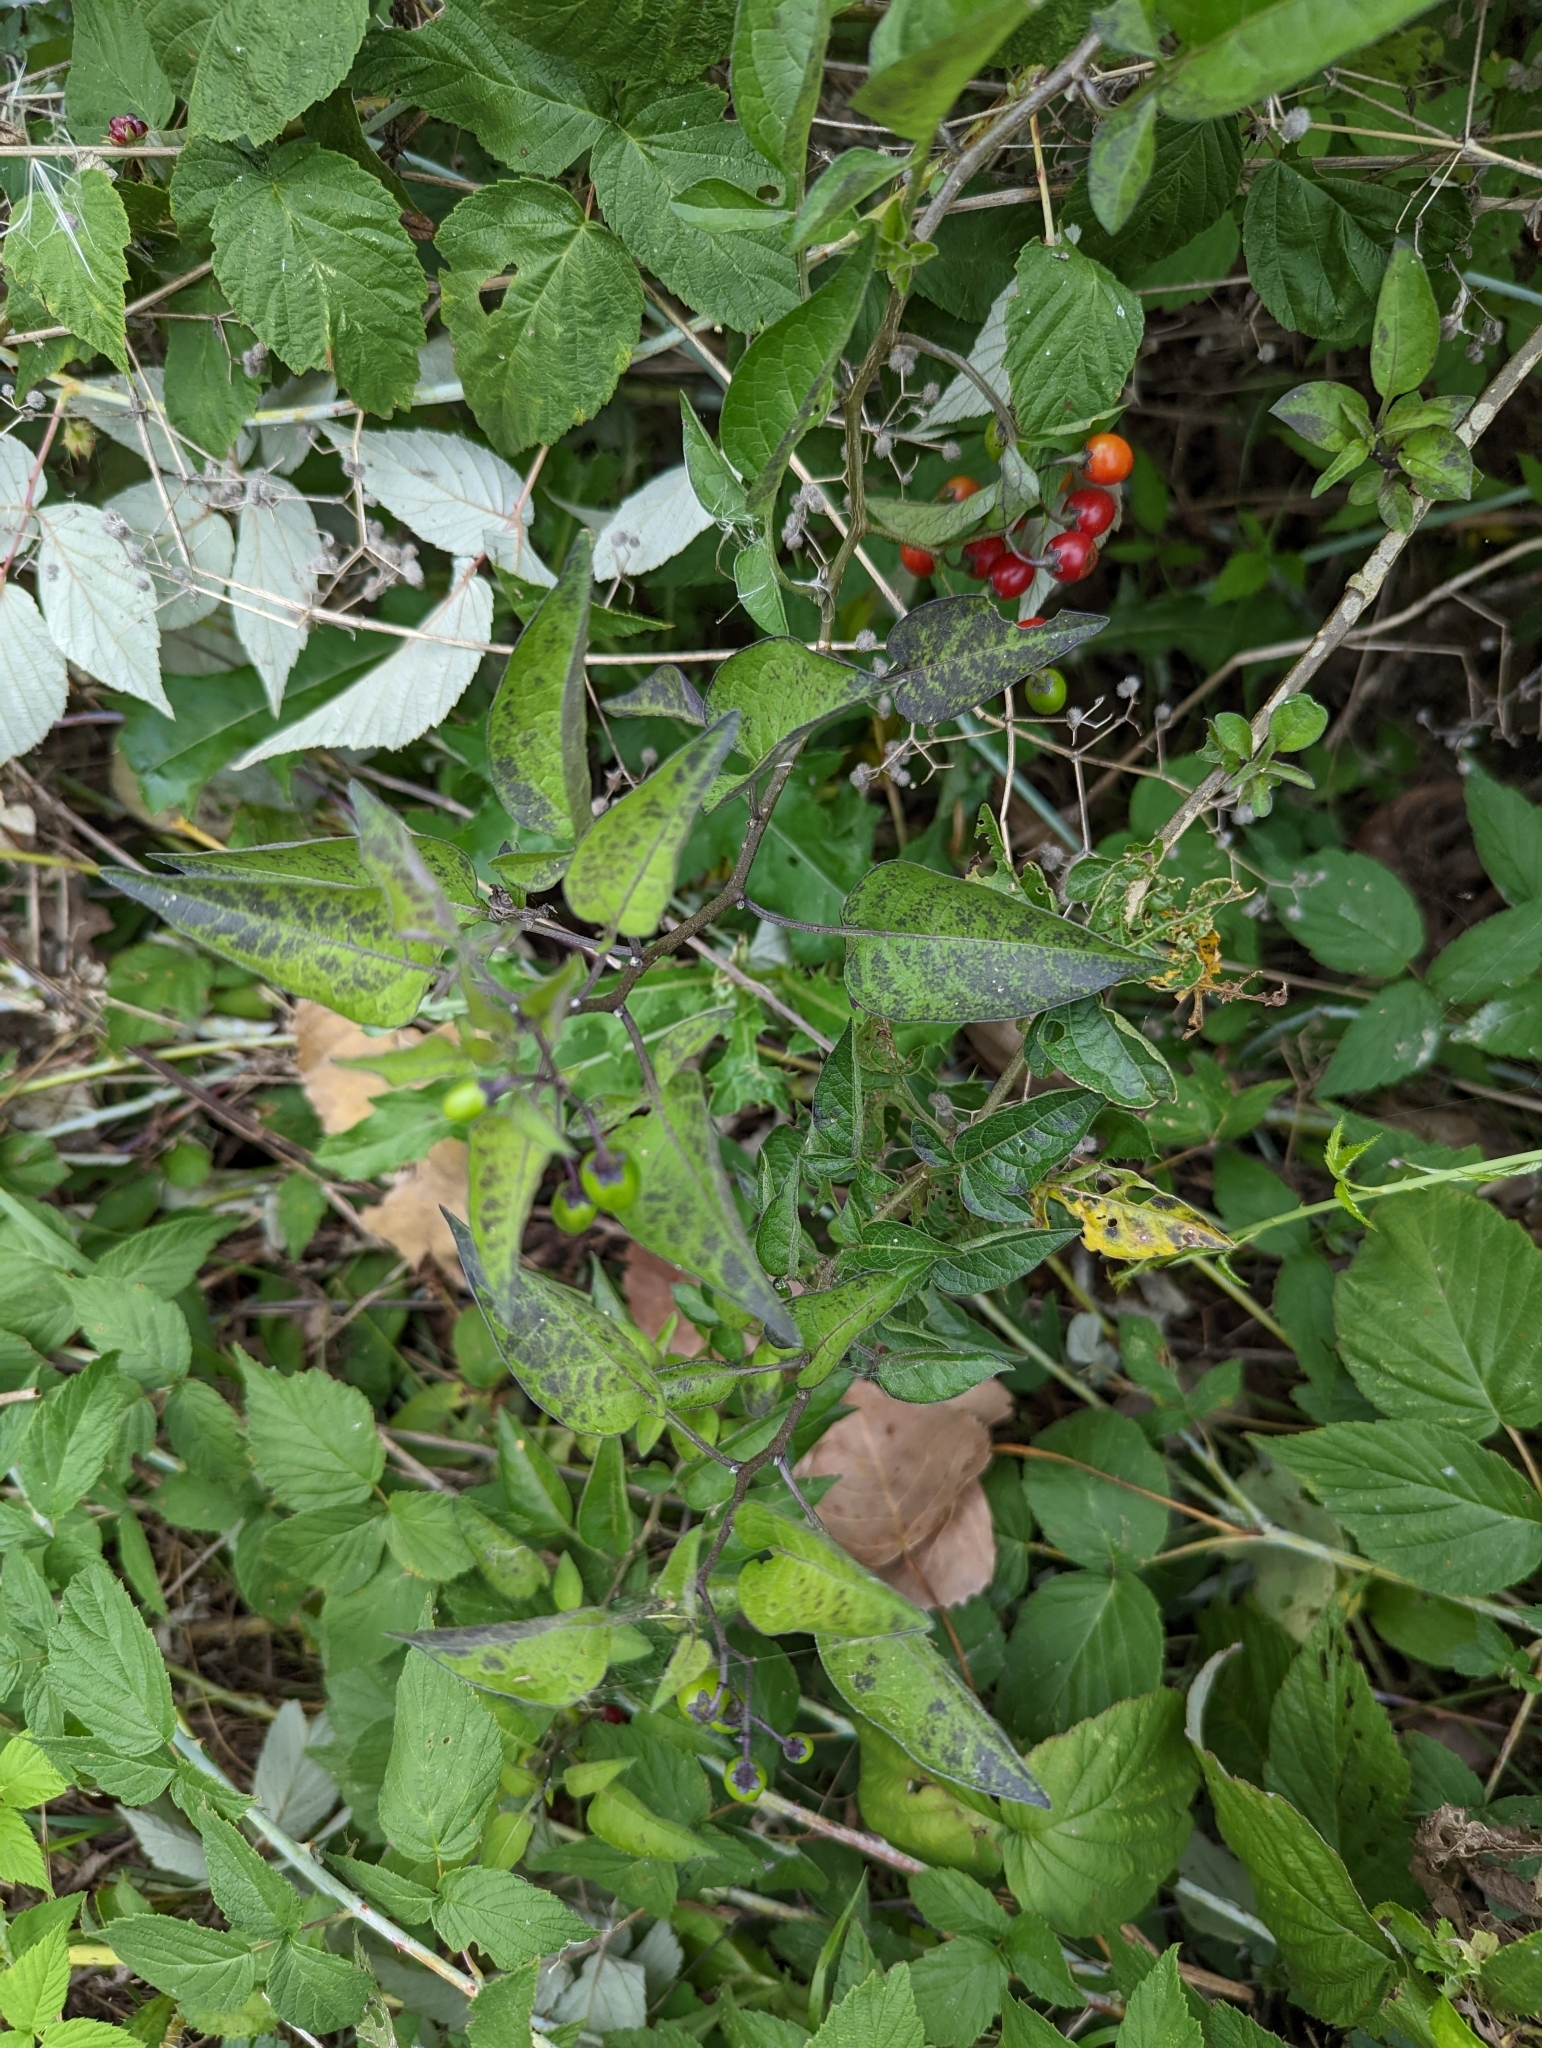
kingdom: Plantae
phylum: Tracheophyta
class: Magnoliopsida
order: Solanales
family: Solanaceae
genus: Solanum
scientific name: Solanum dulcamara
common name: Climbing nightshade
